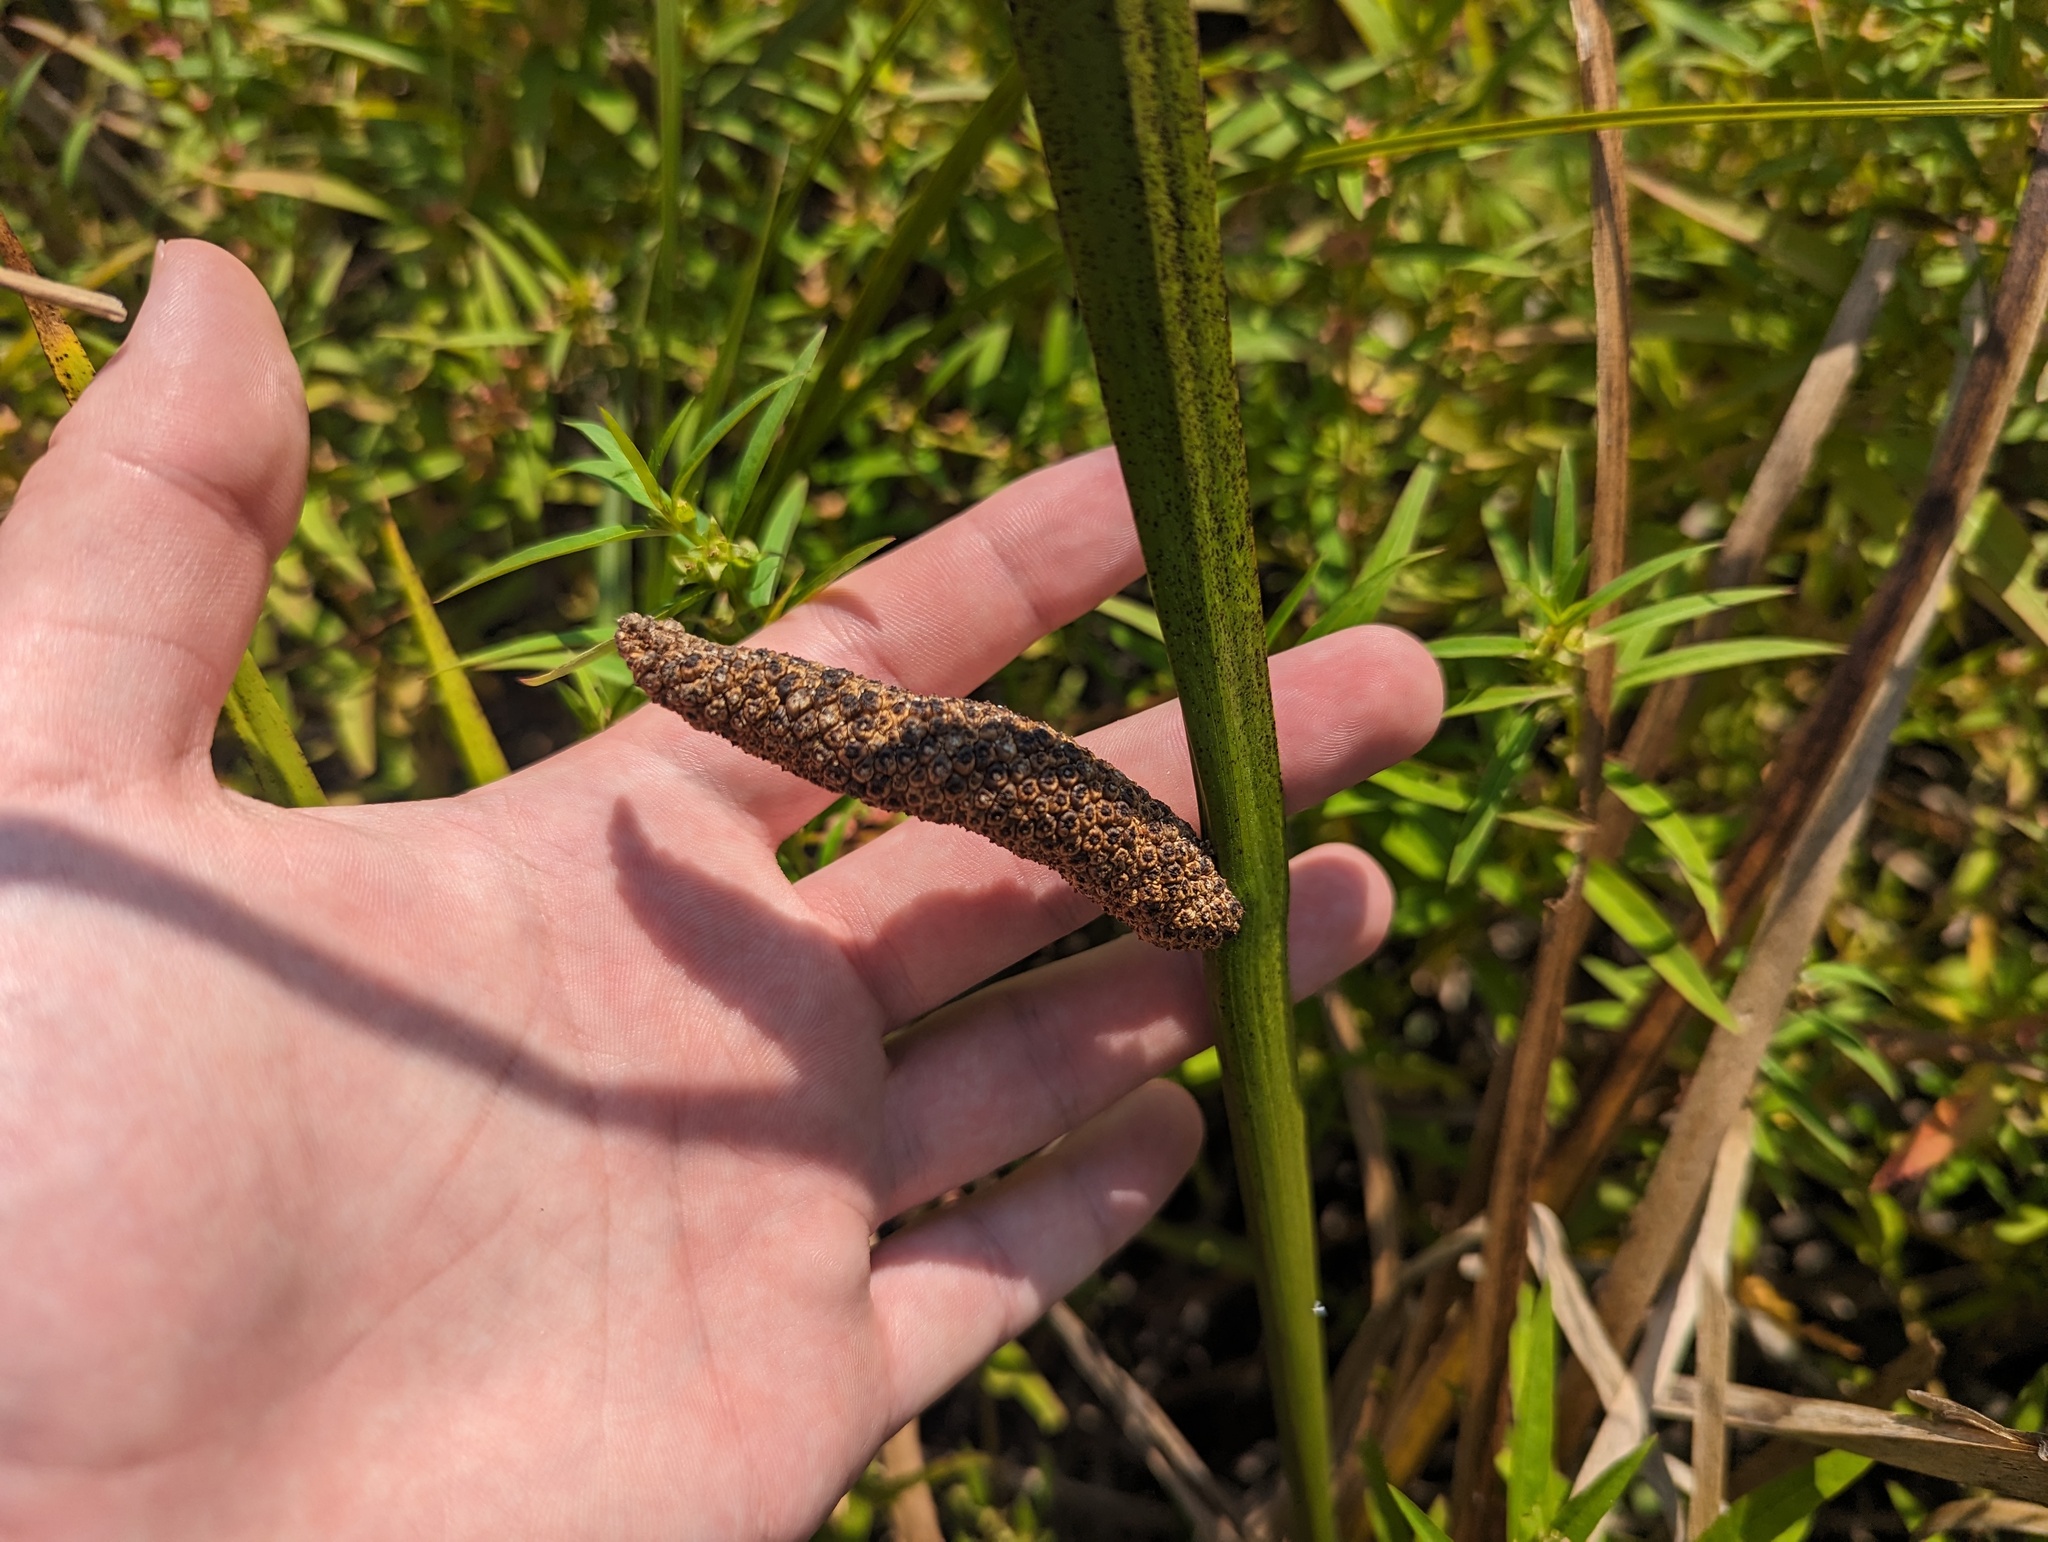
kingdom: Plantae
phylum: Tracheophyta
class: Liliopsida
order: Acorales
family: Acoraceae
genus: Acorus
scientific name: Acorus calamus
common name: Sweet-flag
